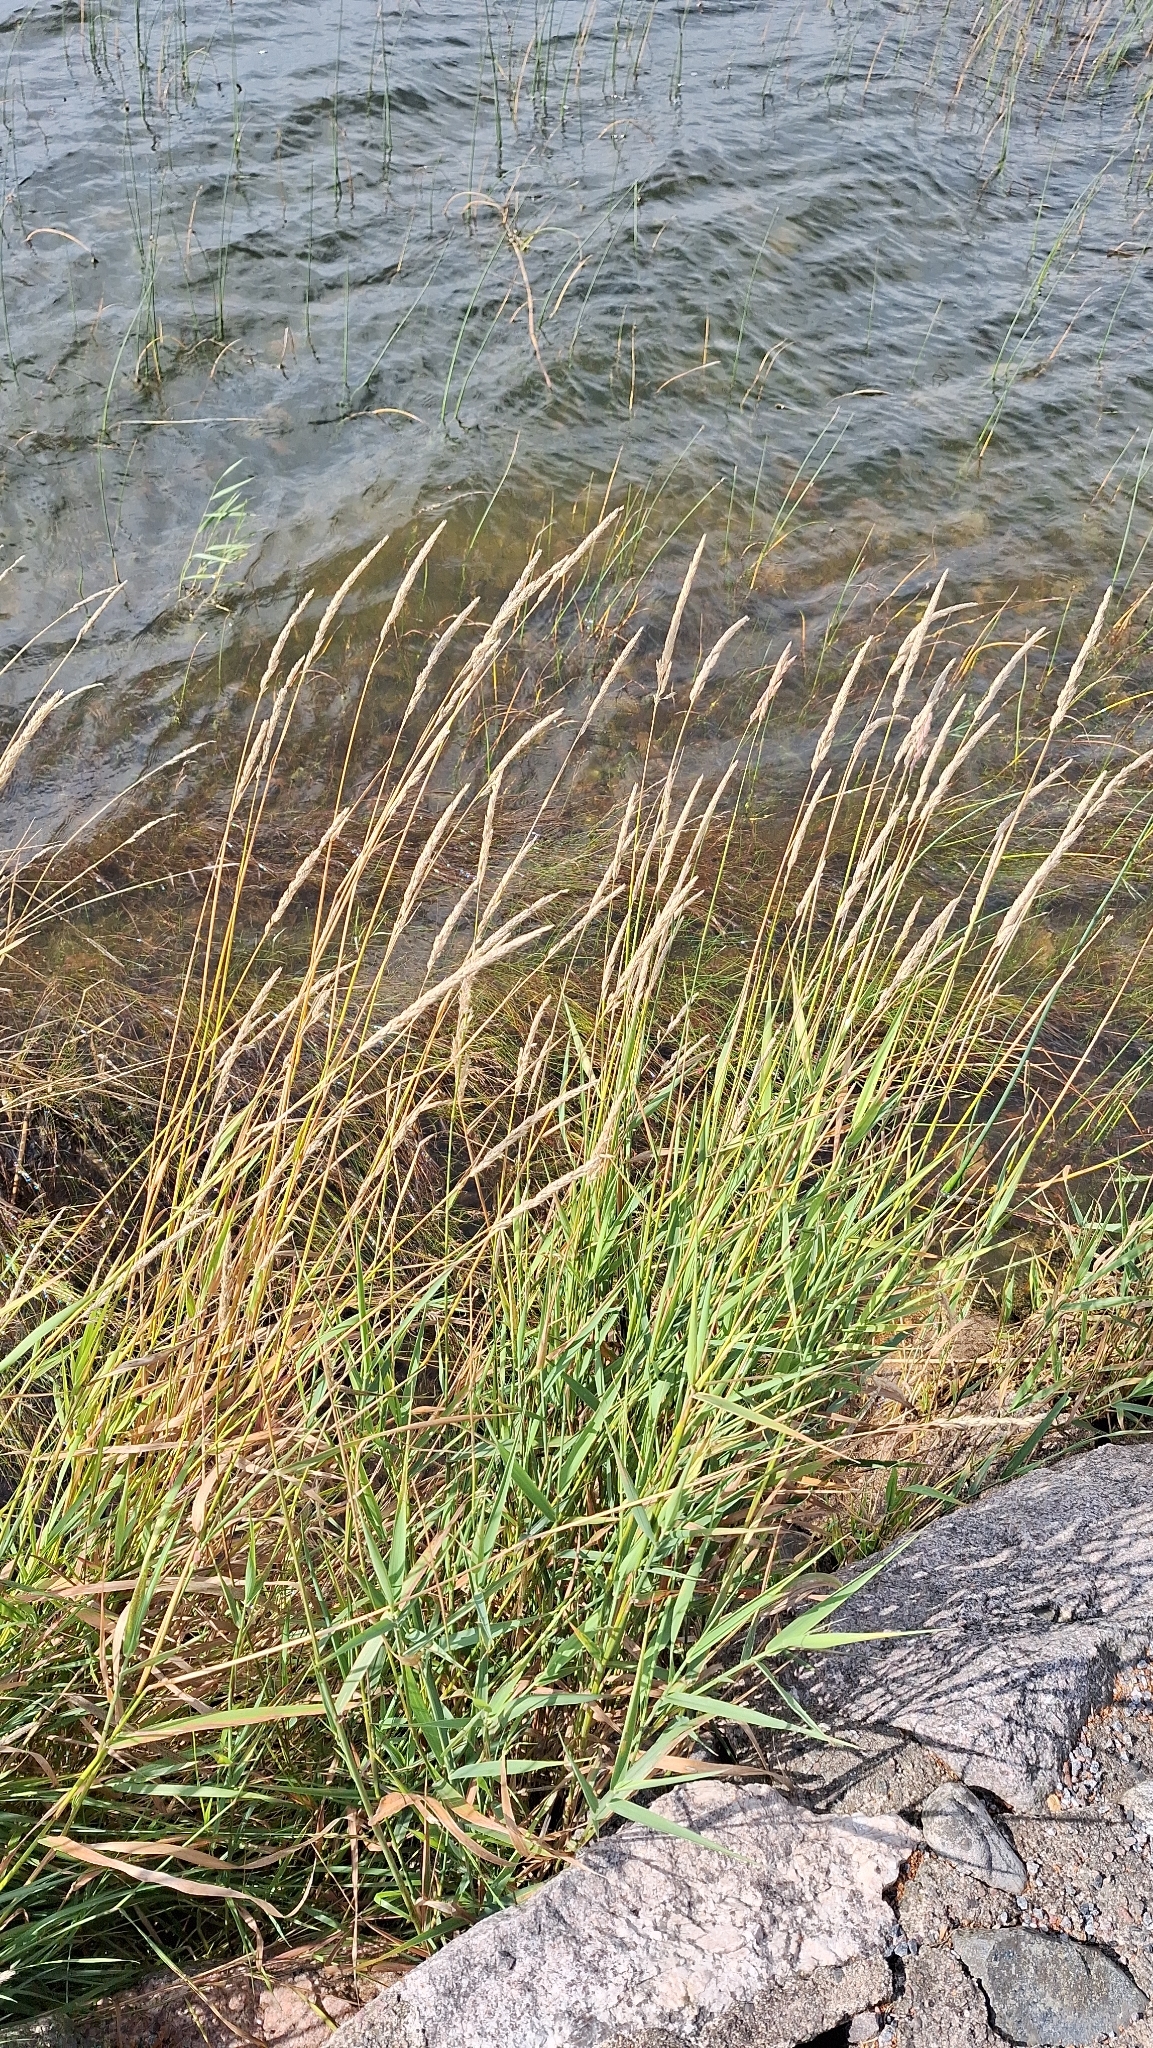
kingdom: Plantae
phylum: Tracheophyta
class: Liliopsida
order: Poales
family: Poaceae
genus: Phalaris
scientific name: Phalaris arundinacea
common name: Reed canary-grass
